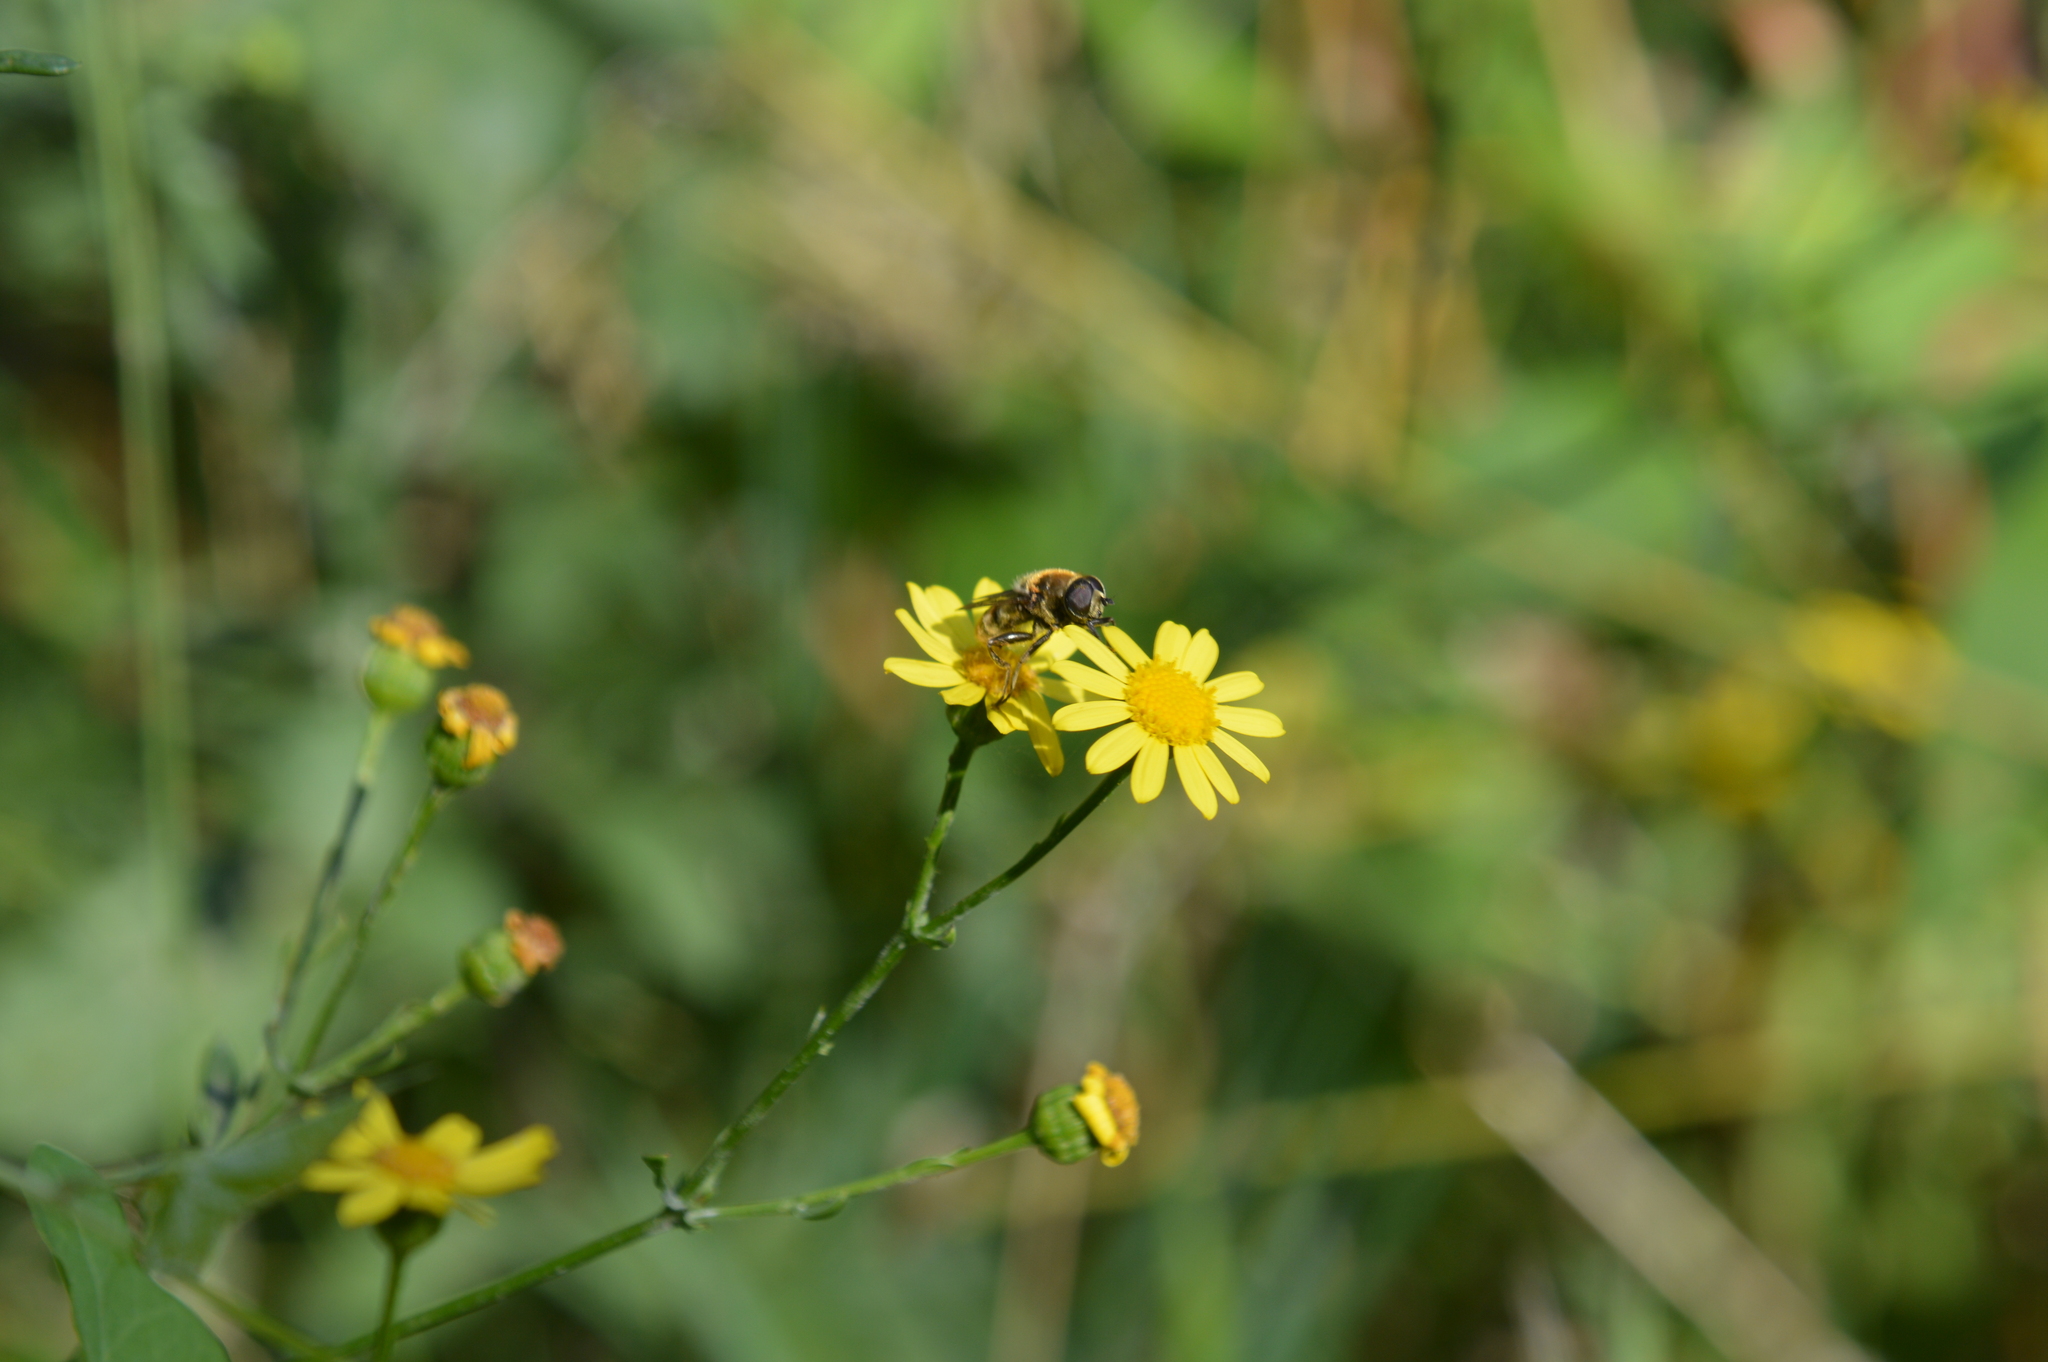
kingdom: Animalia
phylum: Arthropoda
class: Insecta
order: Diptera
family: Syrphidae
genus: Merodon
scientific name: Merodon constans
